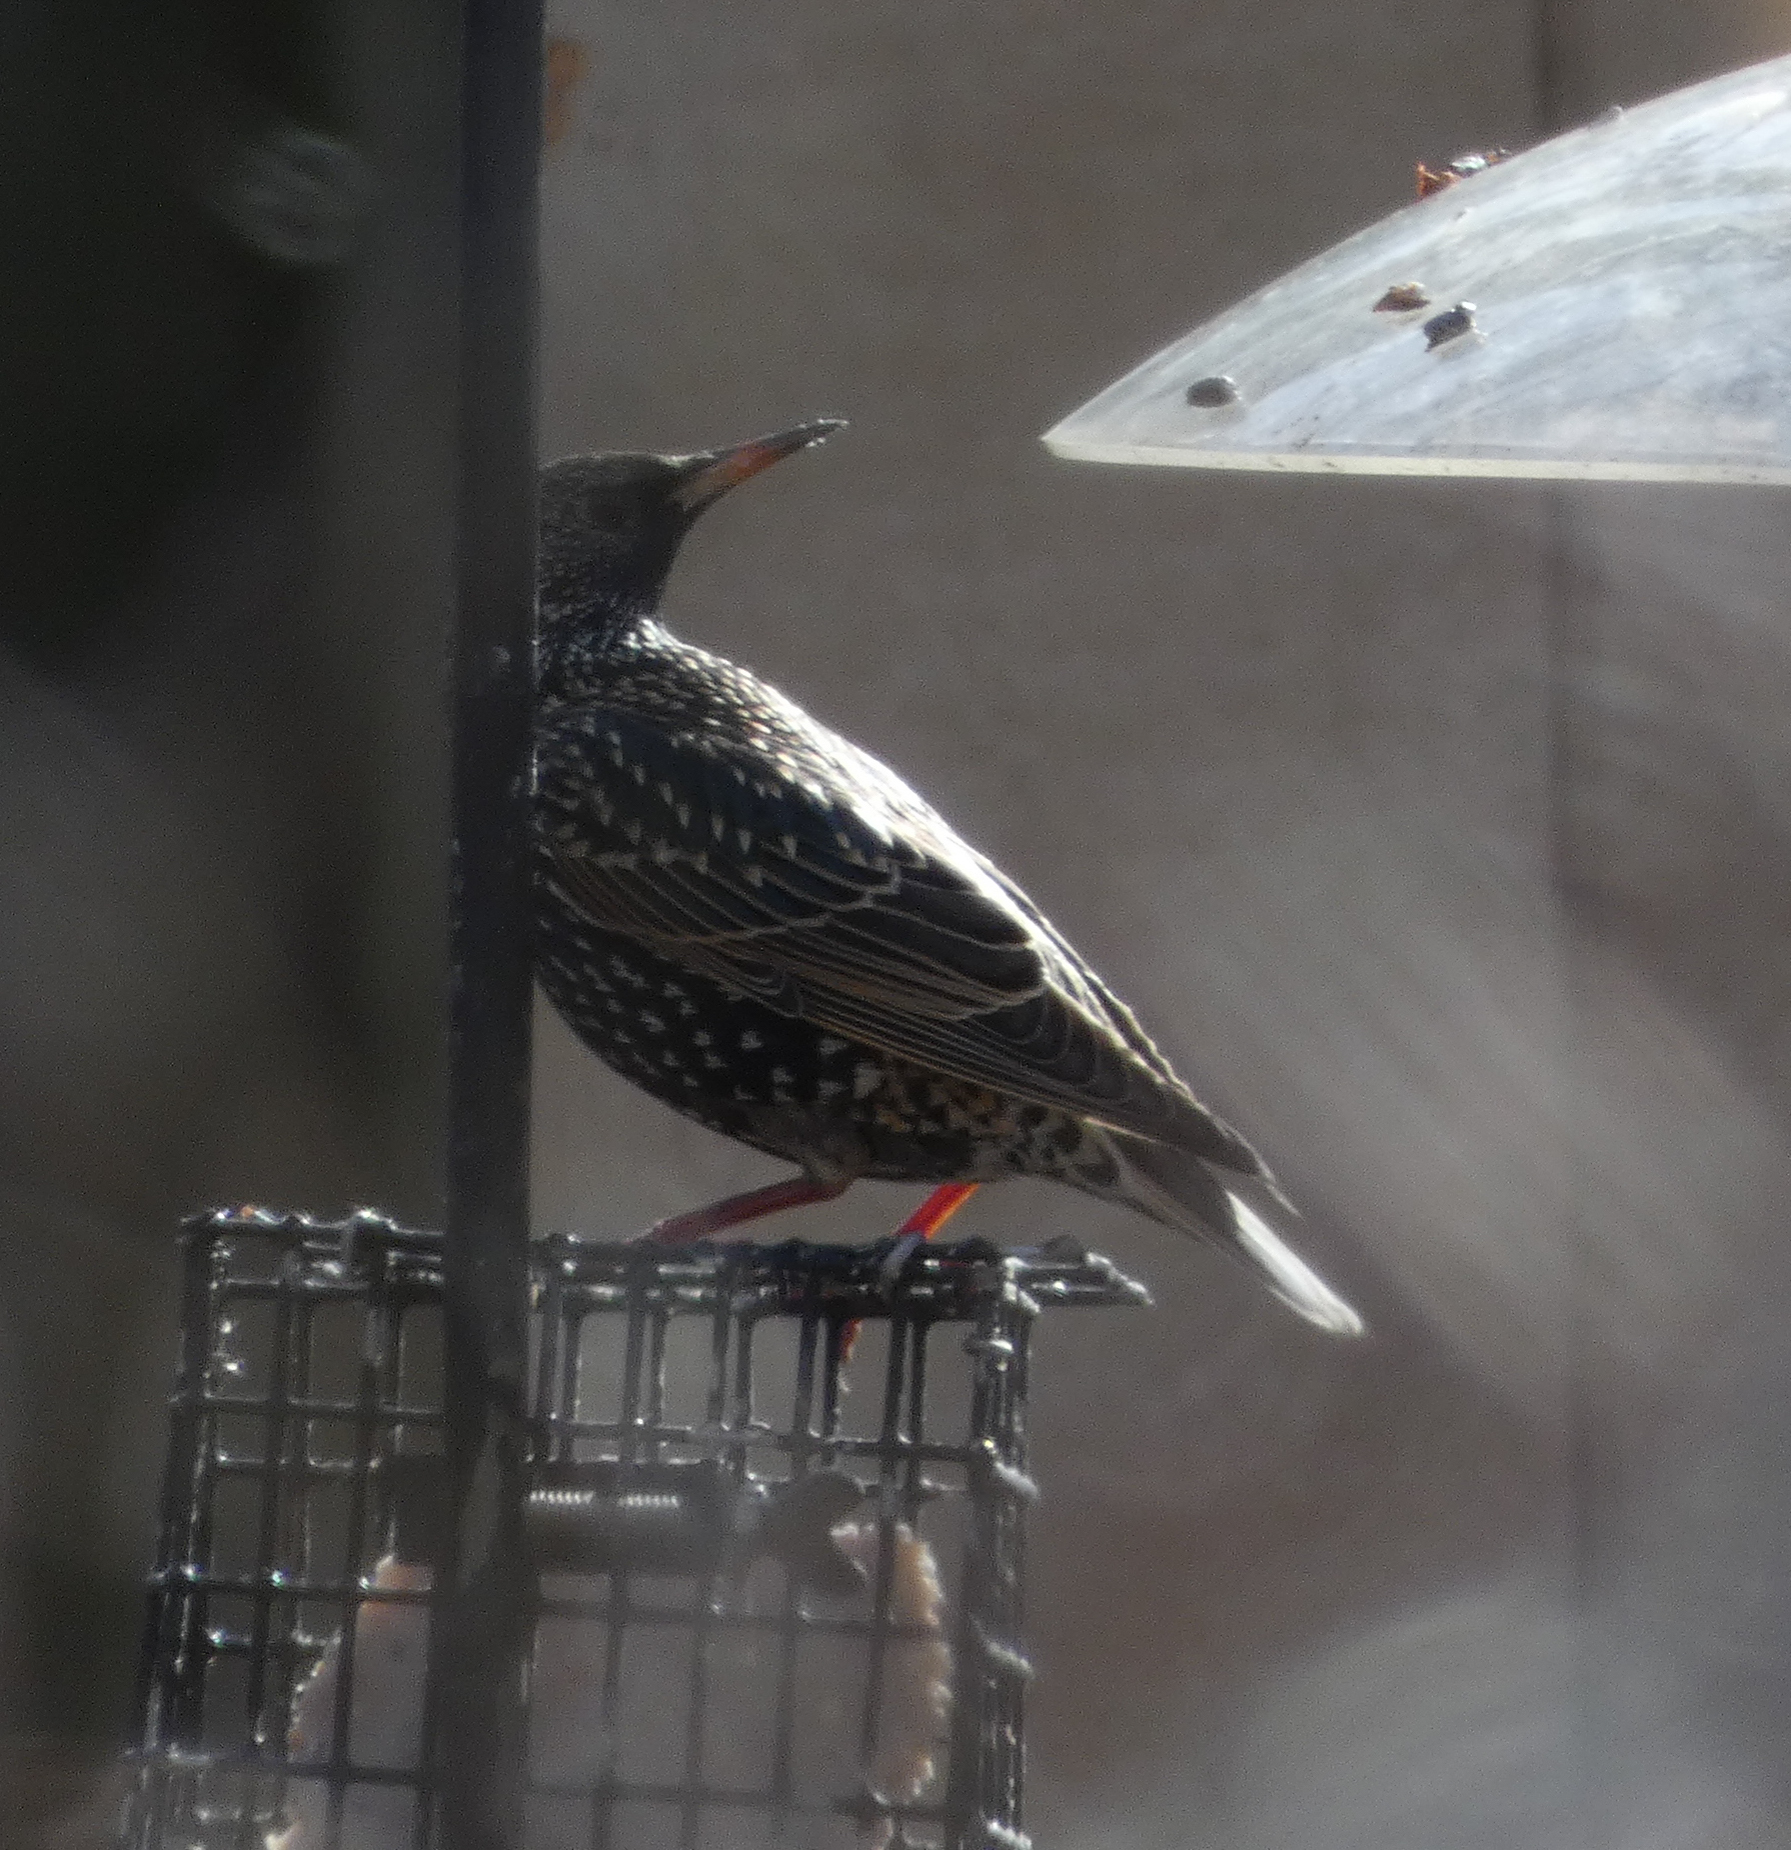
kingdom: Animalia
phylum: Chordata
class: Aves
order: Passeriformes
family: Sturnidae
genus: Sturnus
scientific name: Sturnus vulgaris
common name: Common starling
